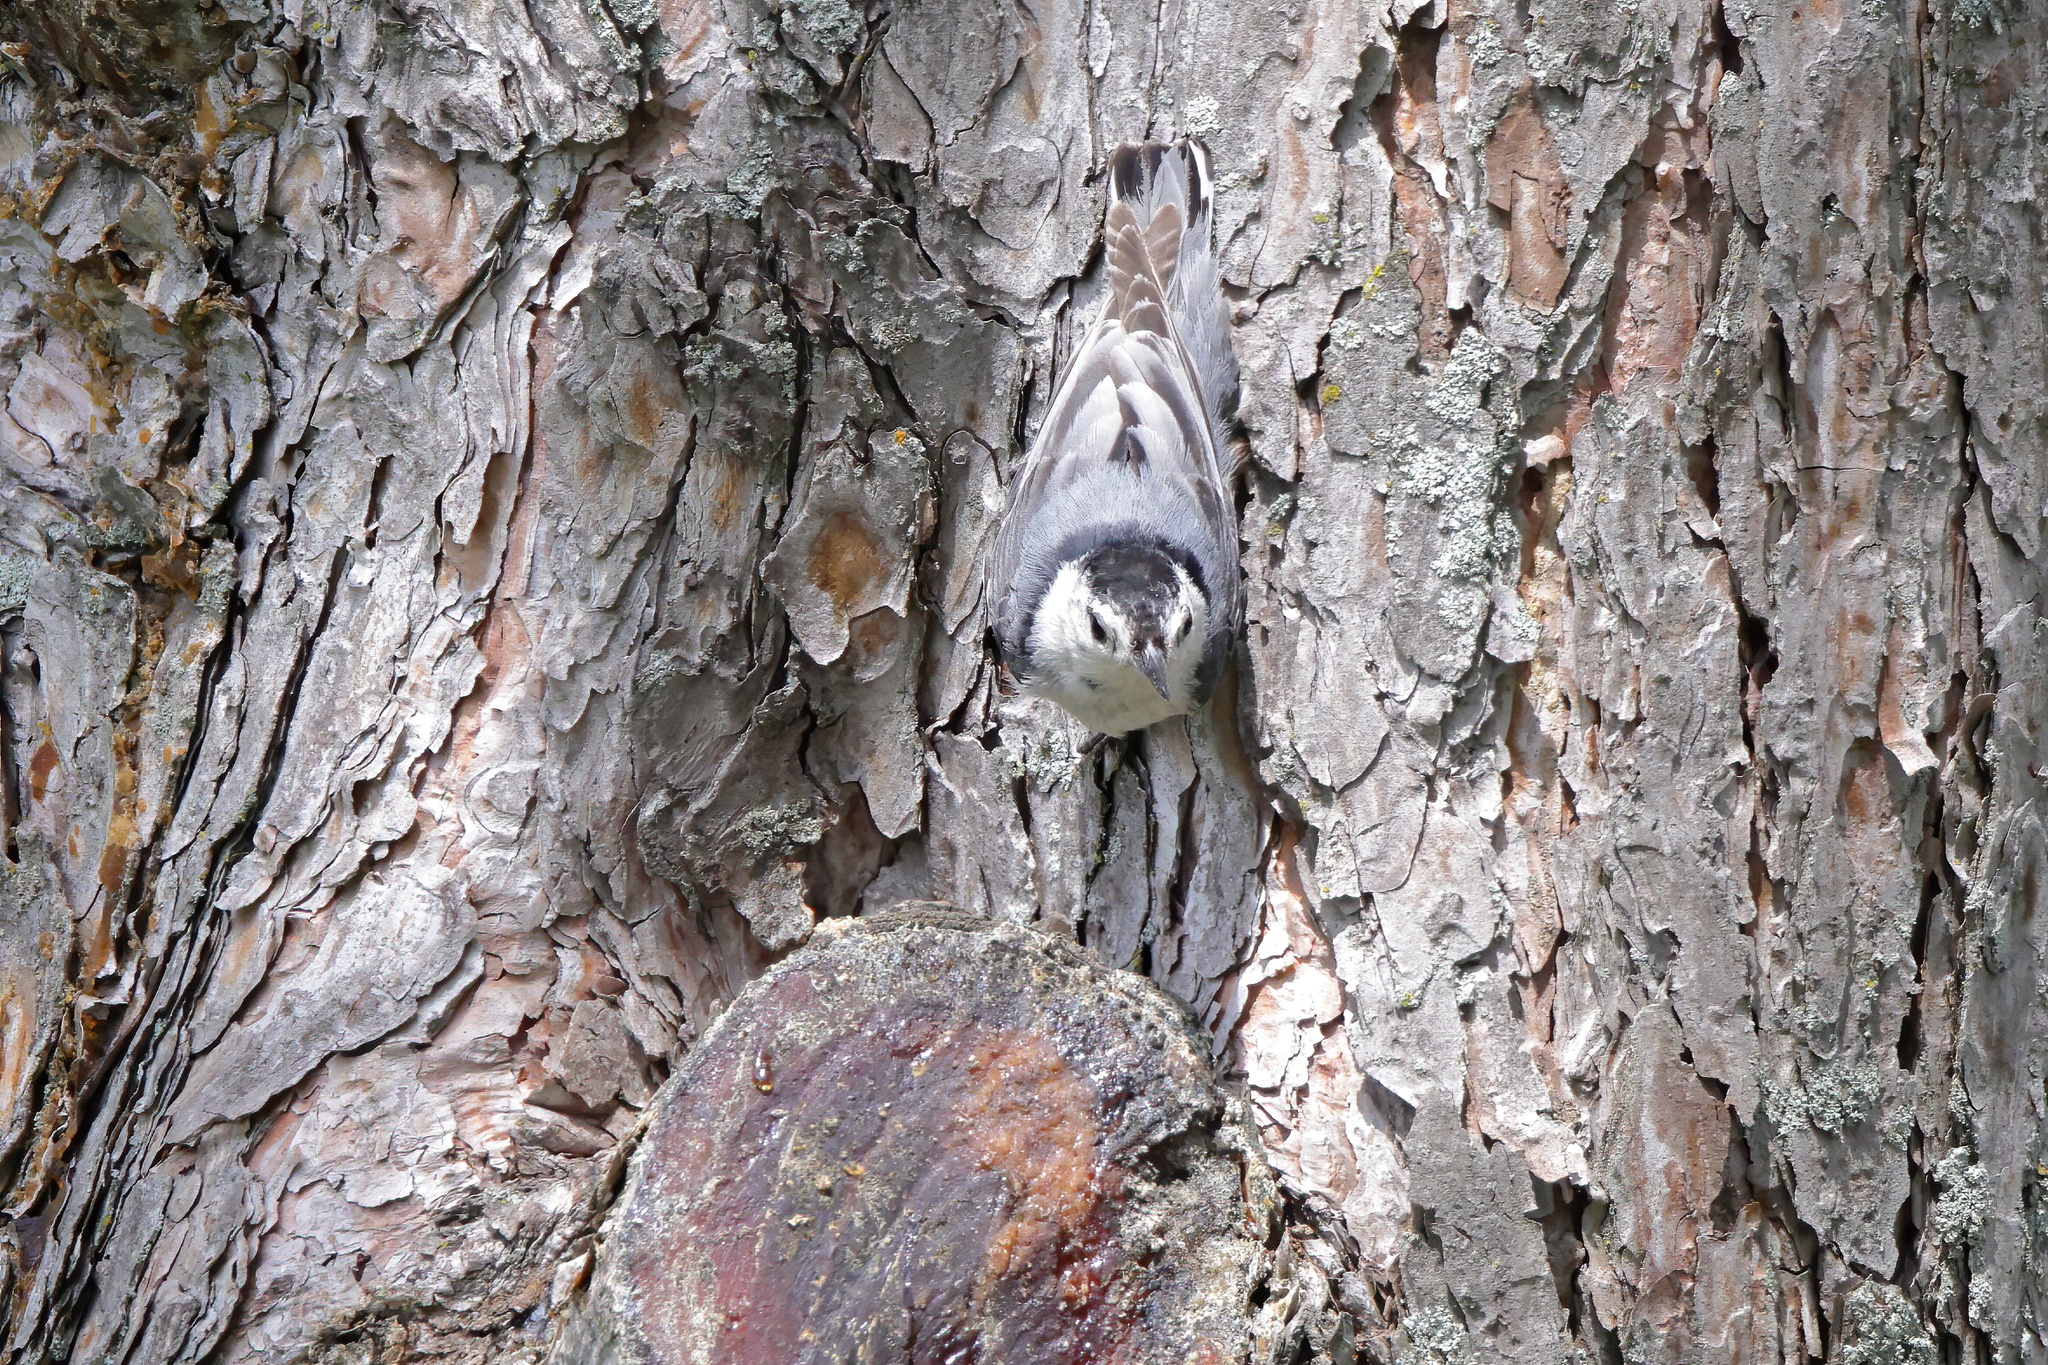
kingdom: Animalia
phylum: Chordata
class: Aves
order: Passeriformes
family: Sittidae
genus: Sitta
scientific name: Sitta carolinensis
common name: White-breasted nuthatch
